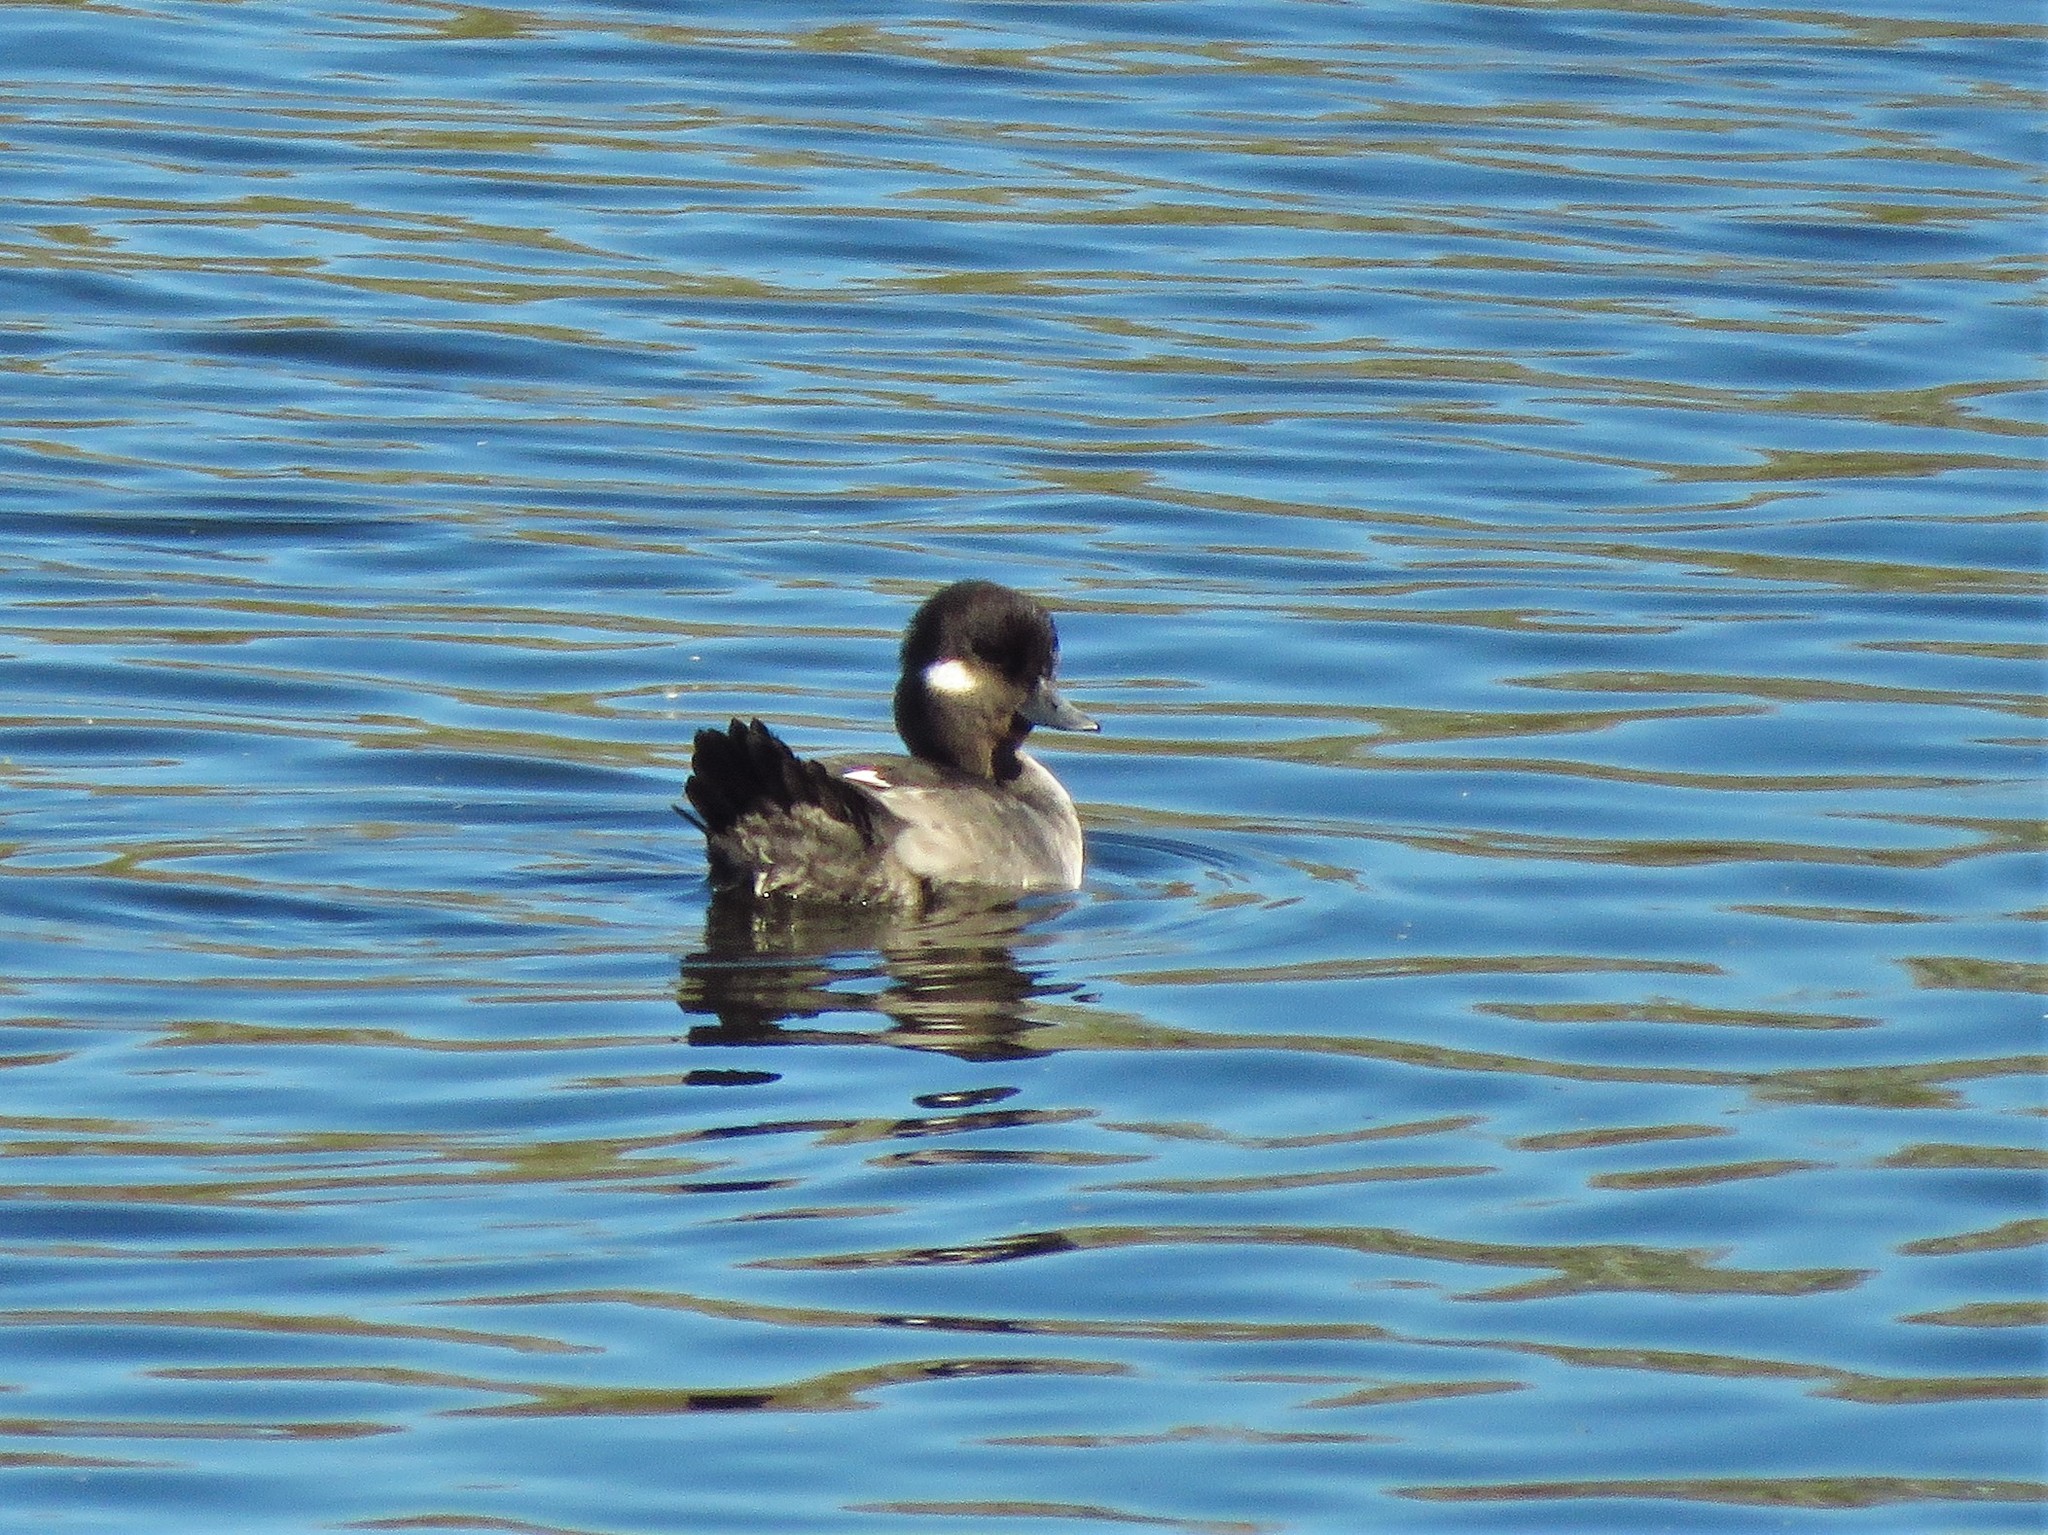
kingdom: Animalia
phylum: Chordata
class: Aves
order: Anseriformes
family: Anatidae
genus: Bucephala
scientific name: Bucephala albeola
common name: Bufflehead
